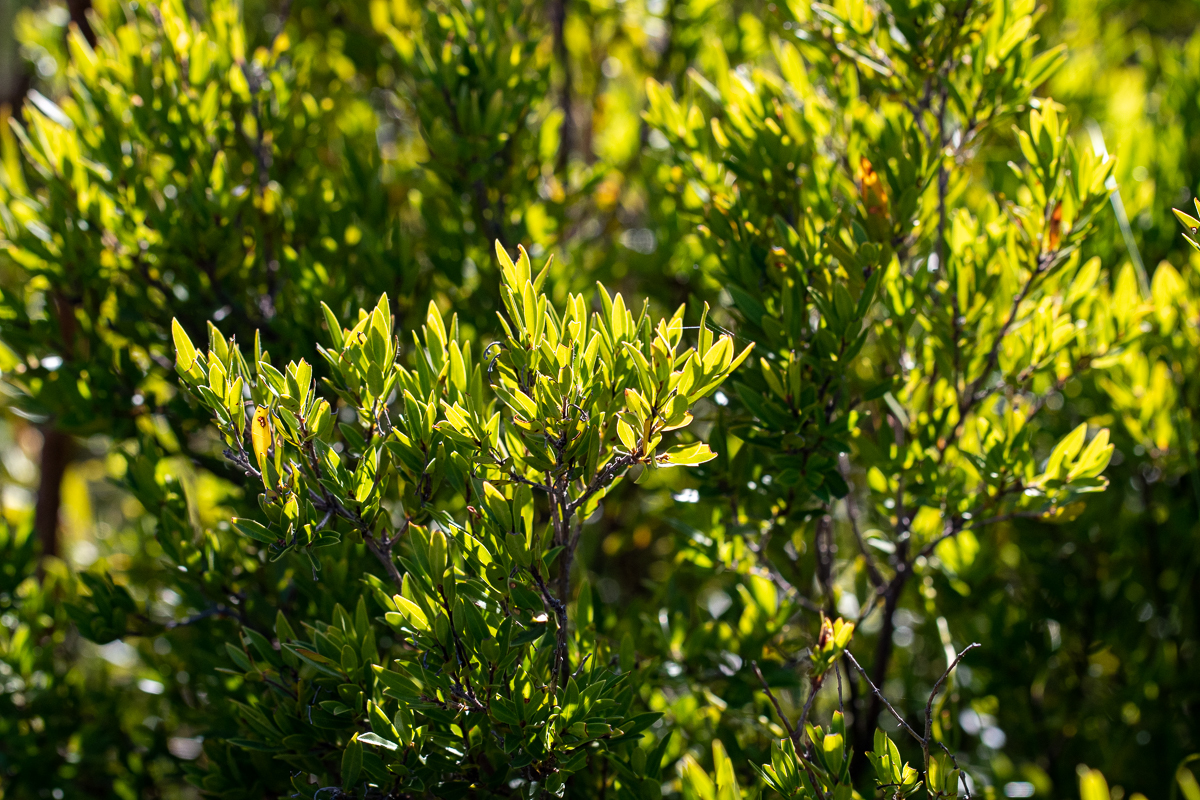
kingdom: Plantae
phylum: Tracheophyta
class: Magnoliopsida
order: Ericales
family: Ebenaceae
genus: Diospyros
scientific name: Diospyros glabra
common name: Fynbos star apple
